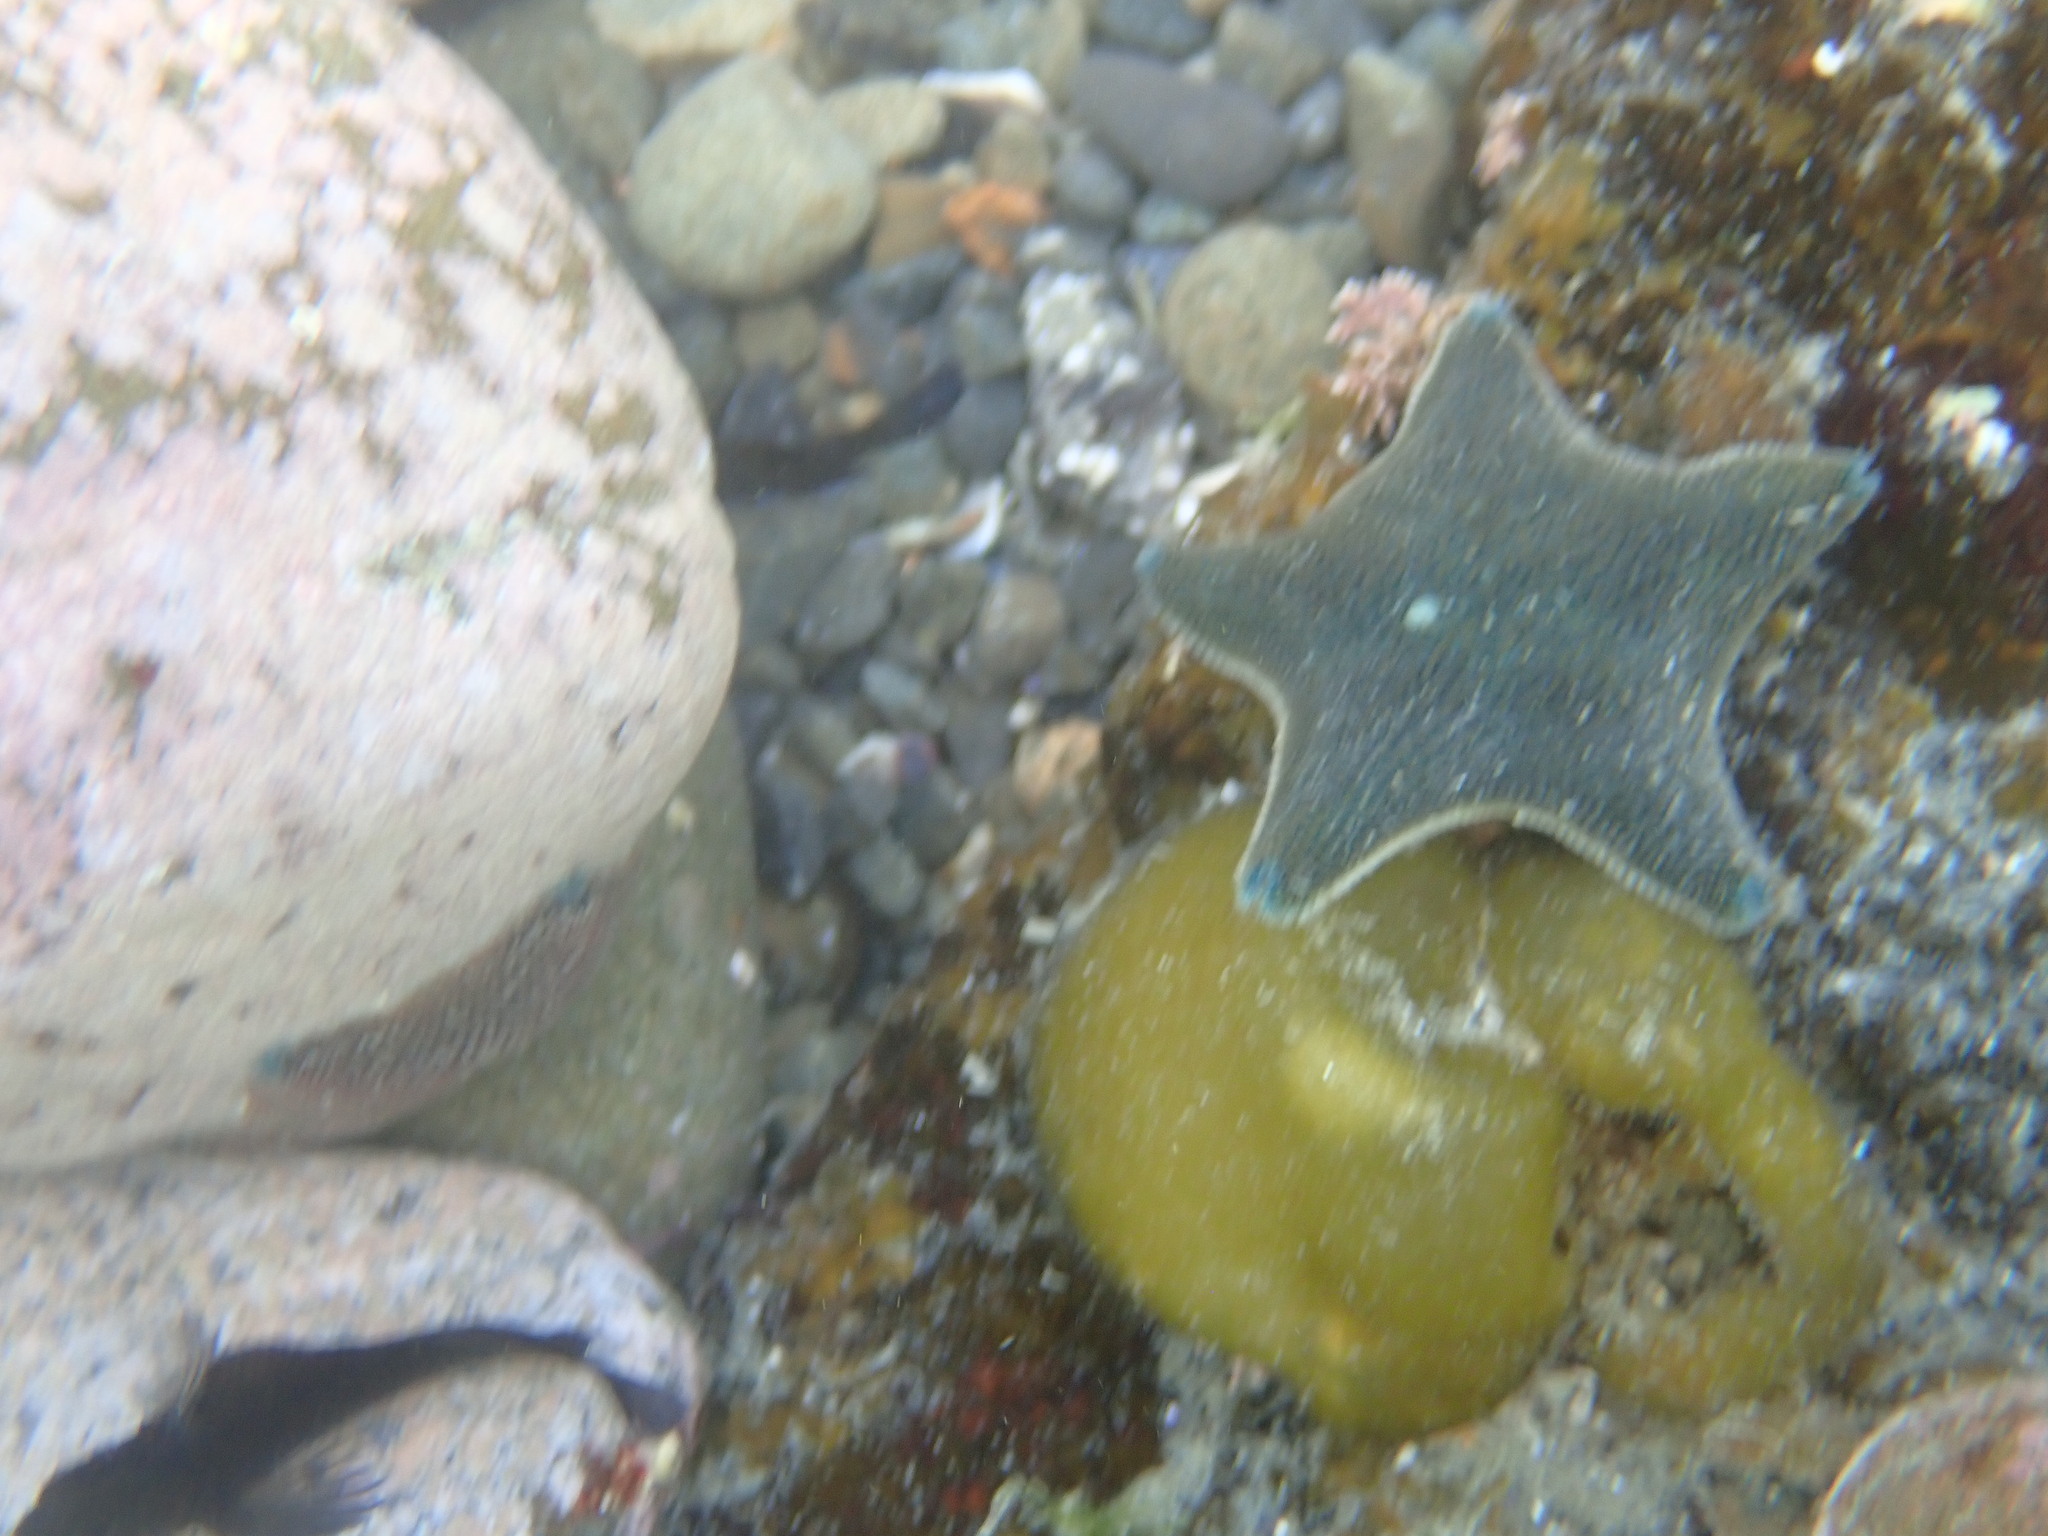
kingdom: Animalia
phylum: Echinodermata
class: Asteroidea
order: Valvatida
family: Asterinidae
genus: Patiriella
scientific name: Patiriella regularis
